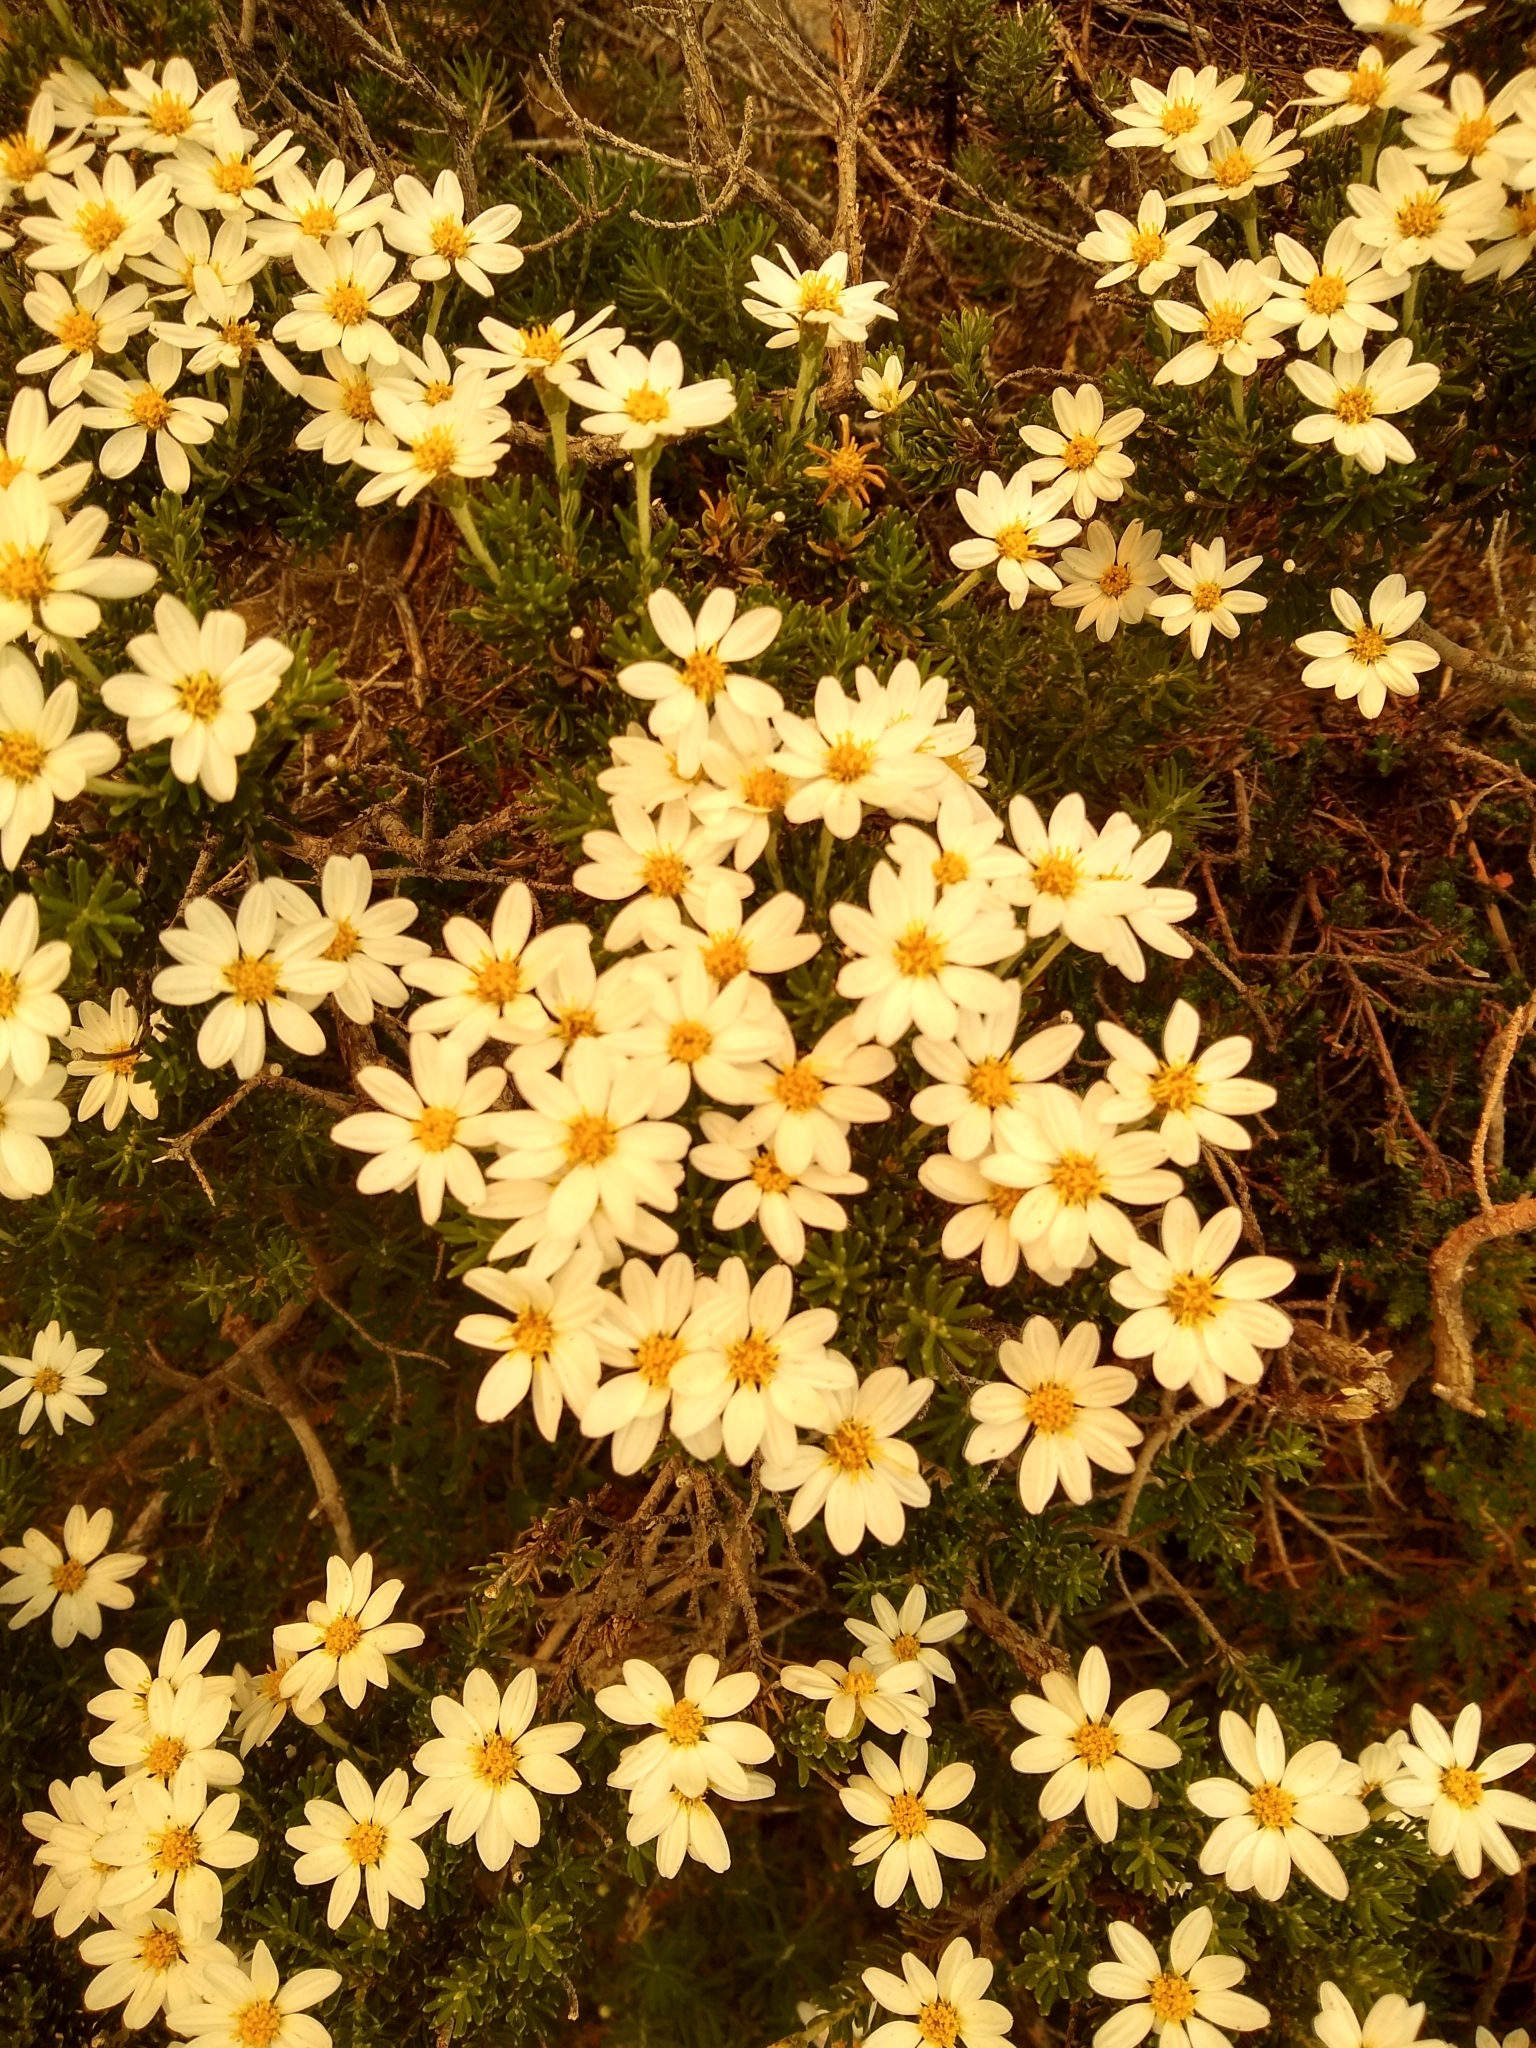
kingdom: Plantae
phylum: Tracheophyta
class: Magnoliopsida
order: Asterales
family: Asteraceae
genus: Chiliotrichum
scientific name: Chiliotrichum diffusum
